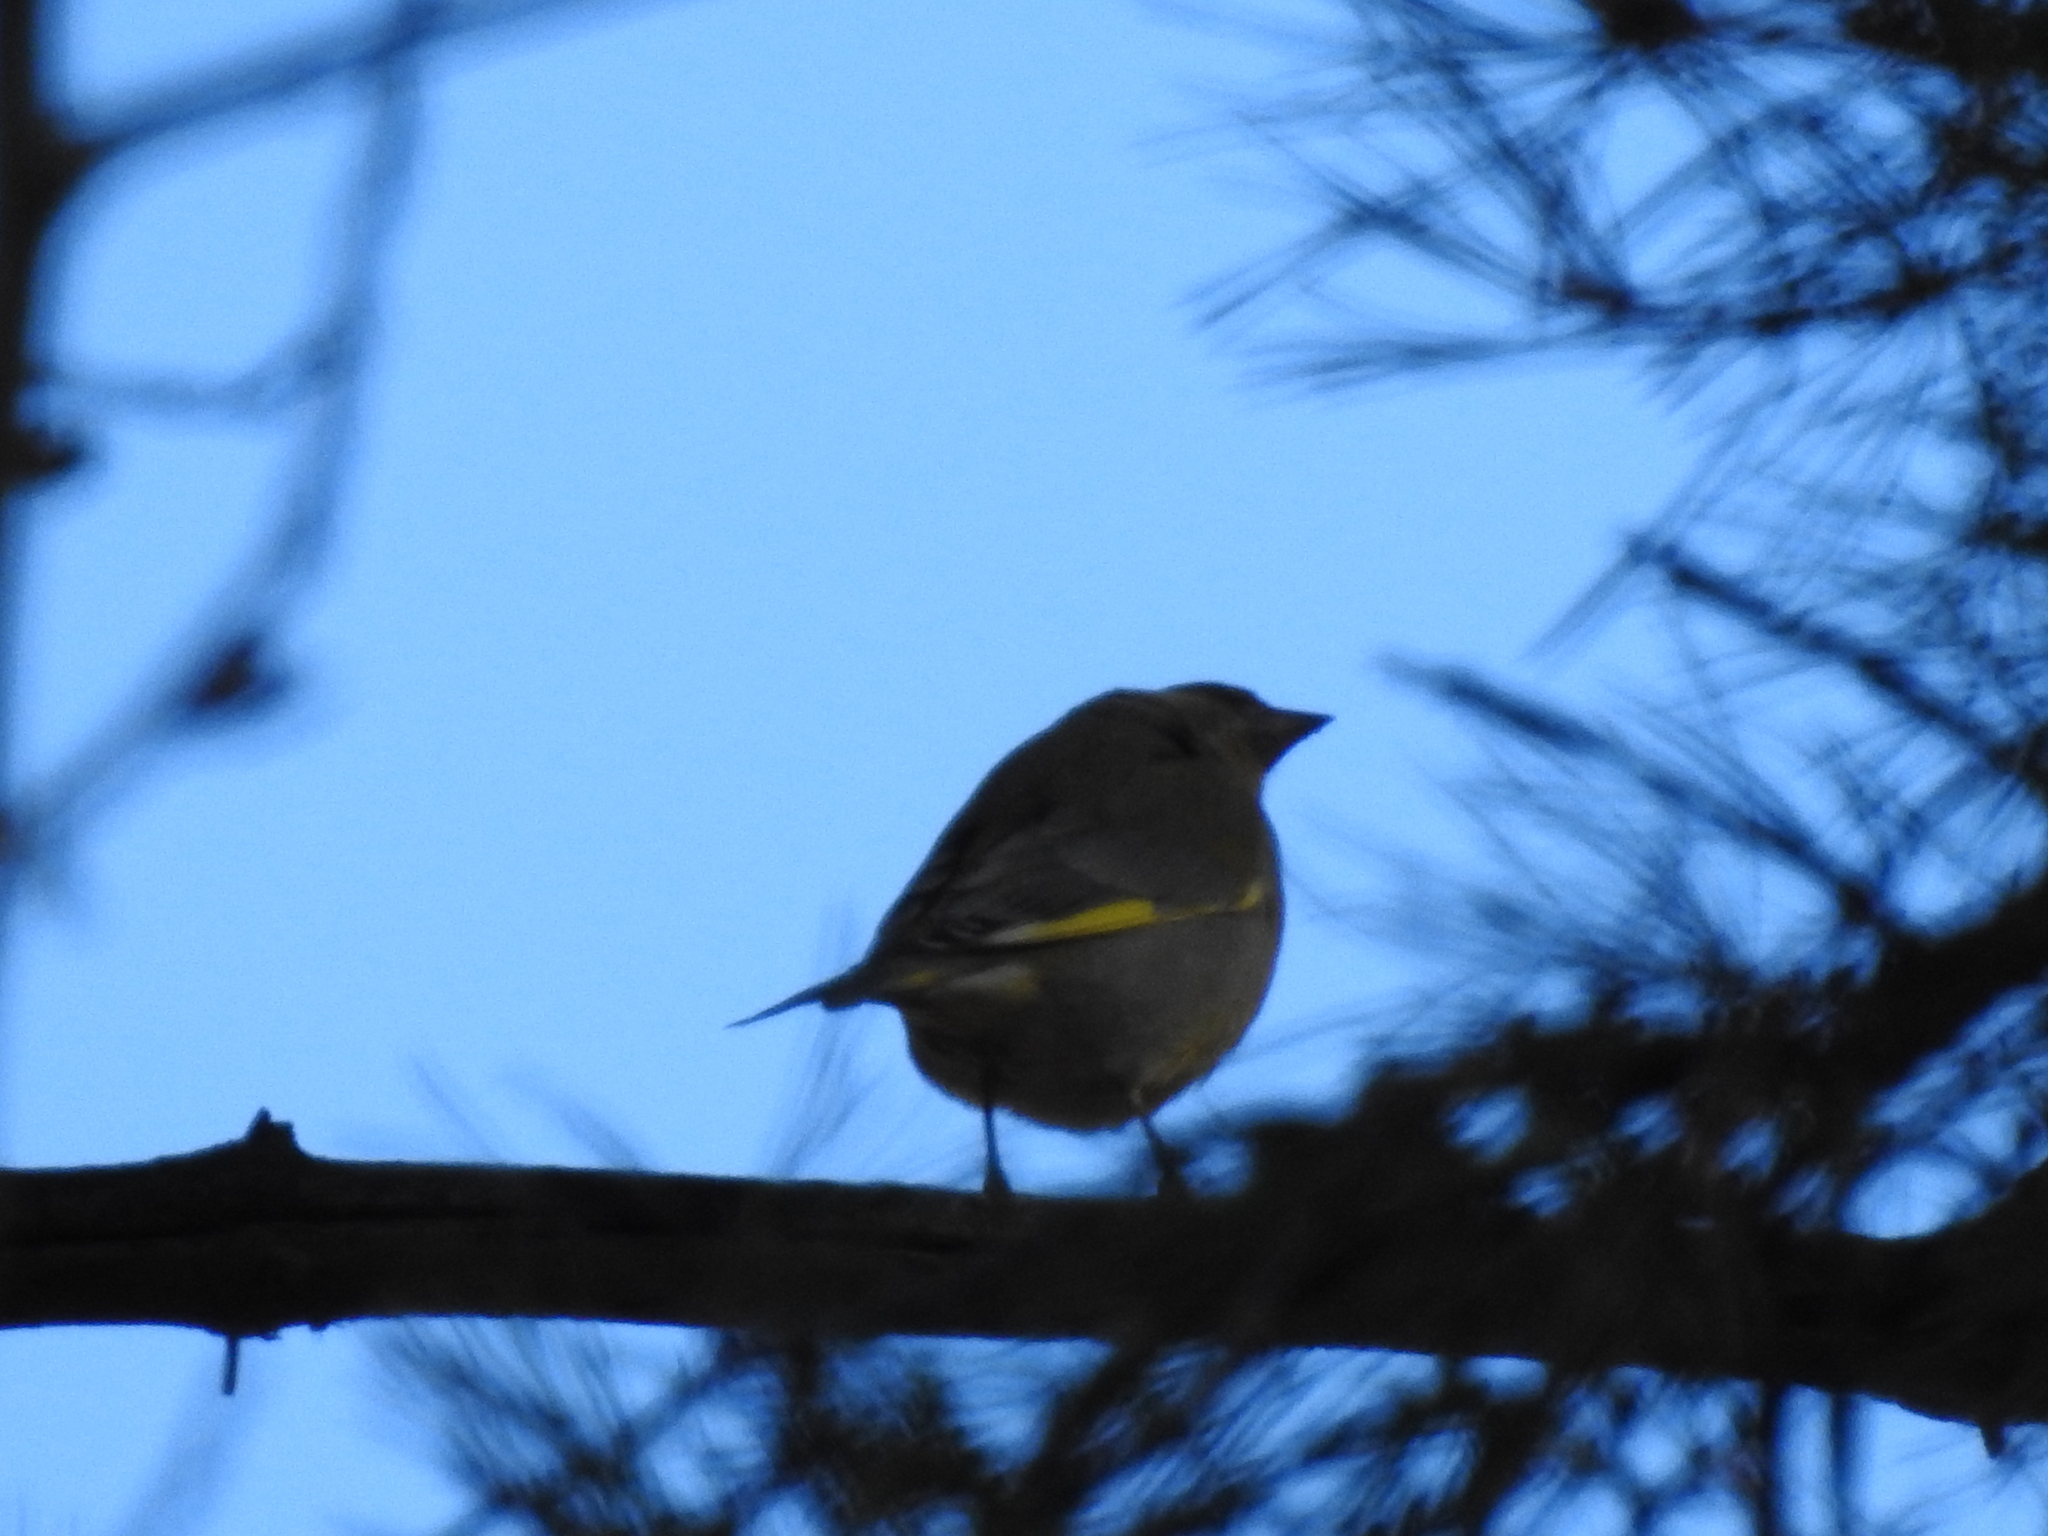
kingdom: Plantae
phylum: Tracheophyta
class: Liliopsida
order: Poales
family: Poaceae
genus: Chloris
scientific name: Chloris chloris
